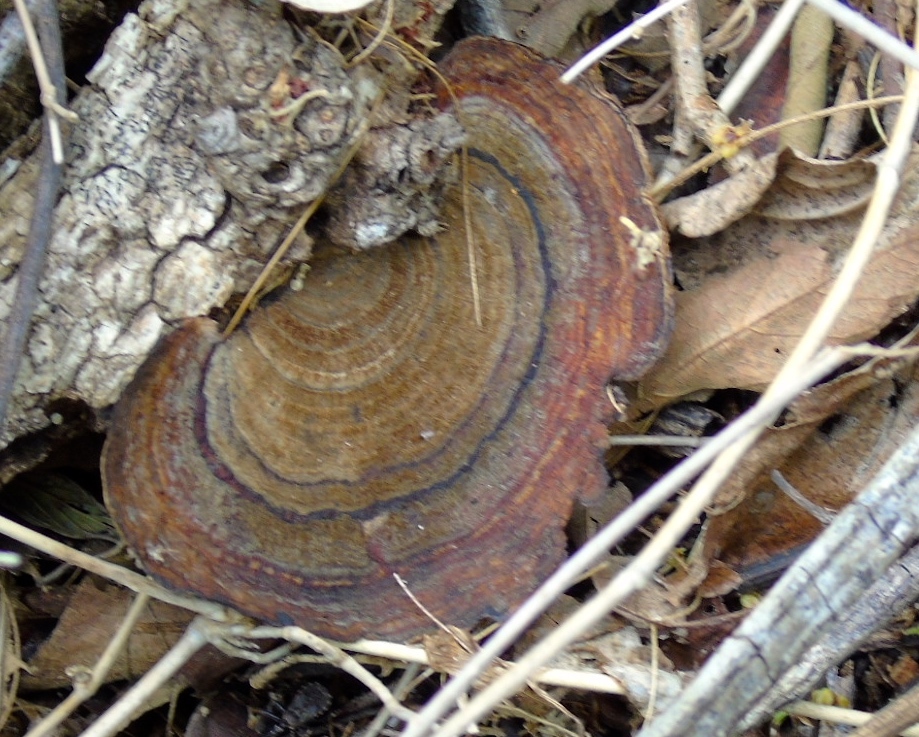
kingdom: Fungi
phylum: Basidiomycota
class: Agaricomycetes
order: Polyporales
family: Polyporaceae
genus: Hexagonia
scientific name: Hexagonia
